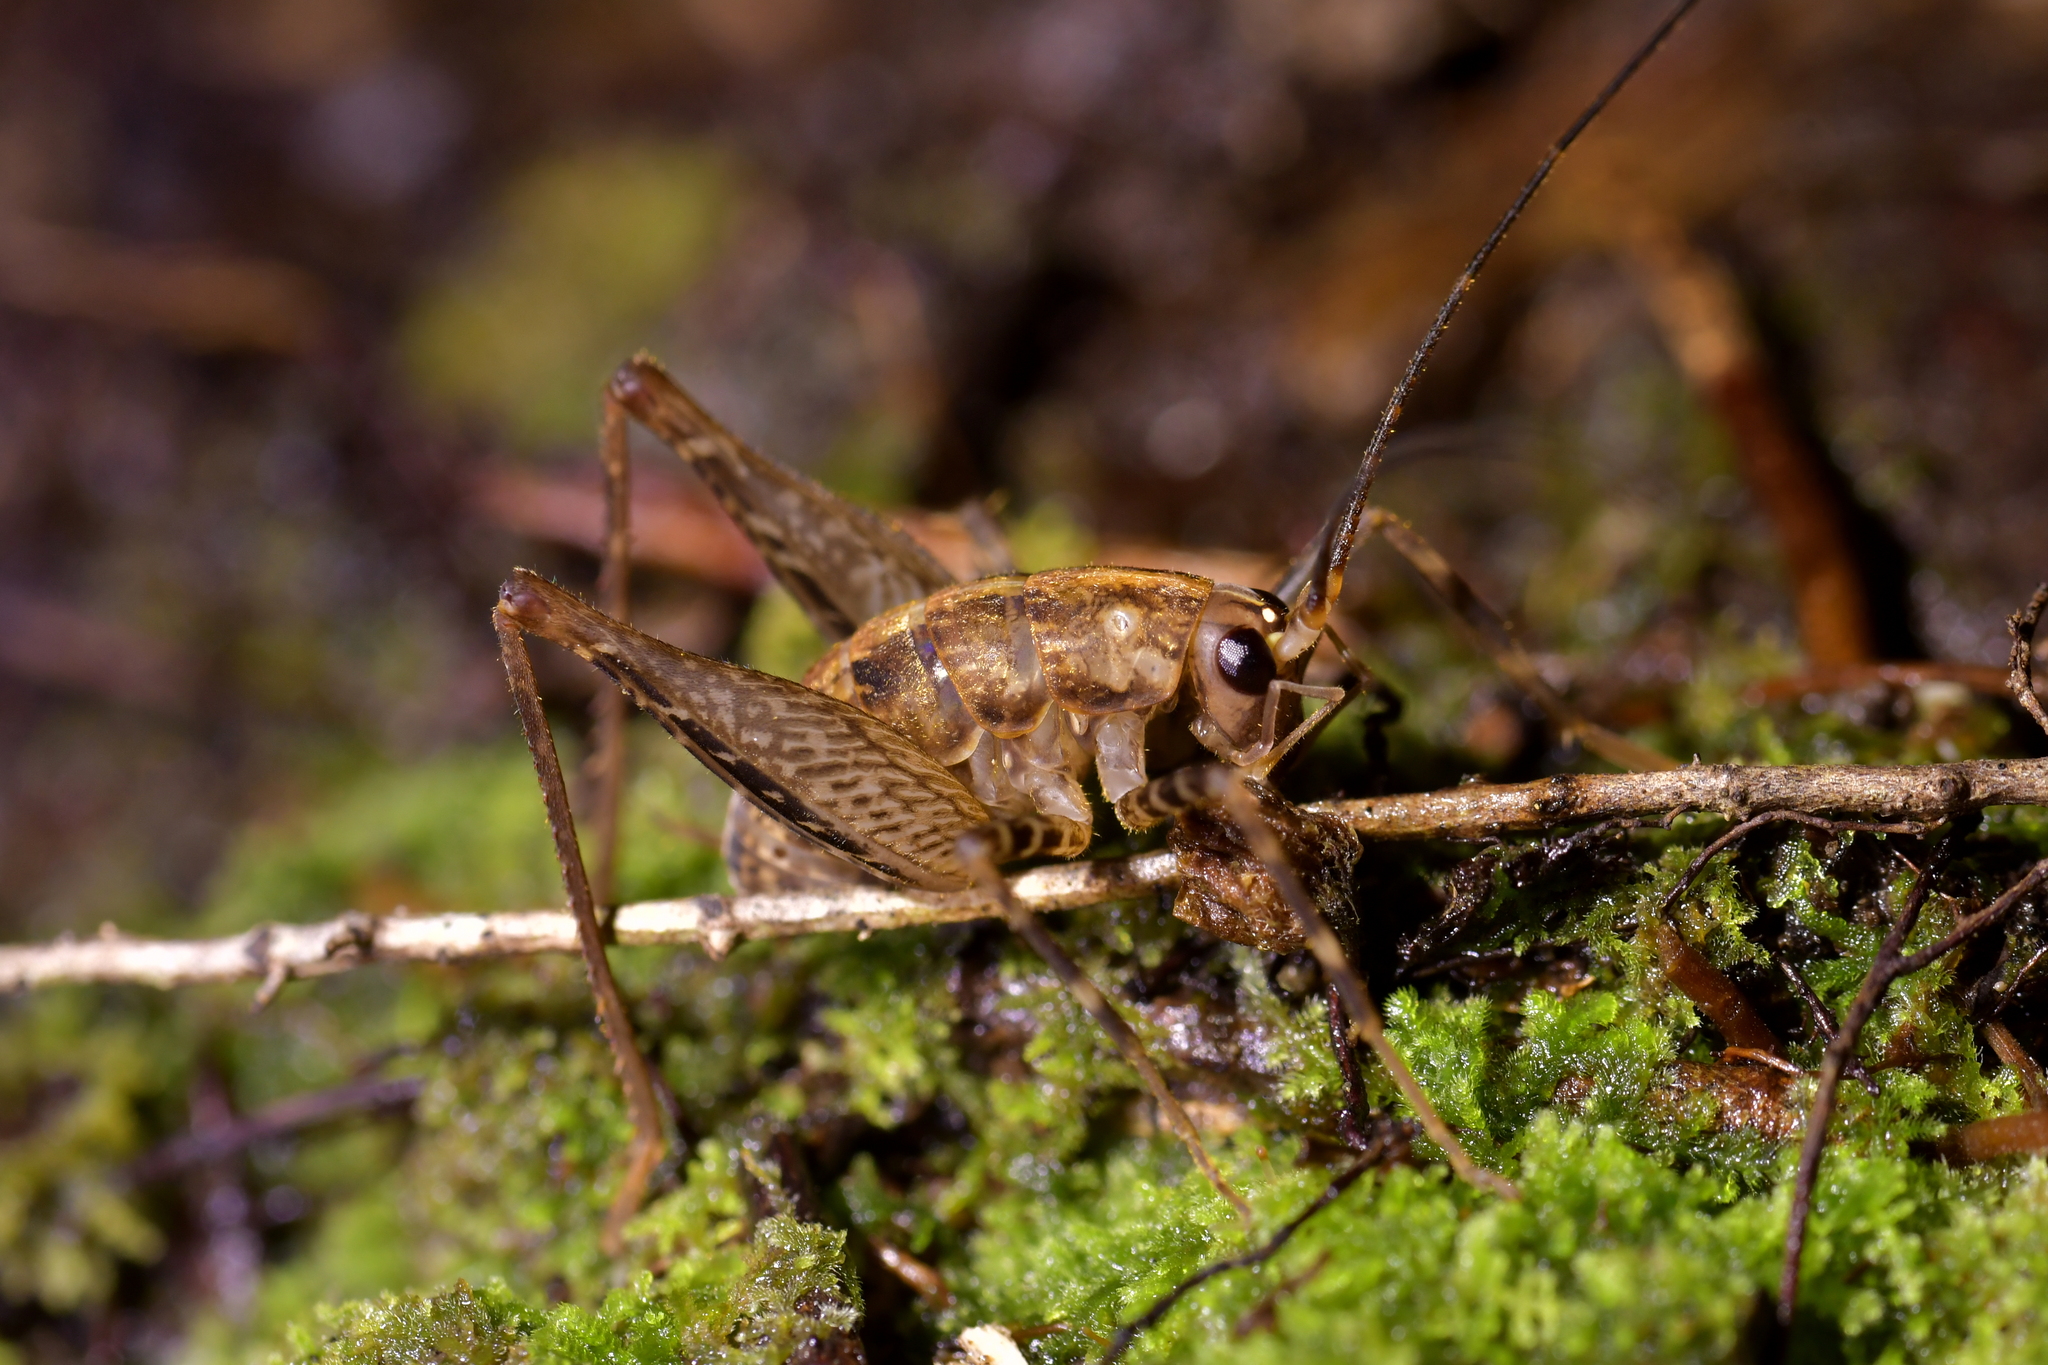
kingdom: Animalia
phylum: Arthropoda
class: Insecta
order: Orthoptera
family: Rhaphidophoridae
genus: Pleioplectron
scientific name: Pleioplectron hudsoni
